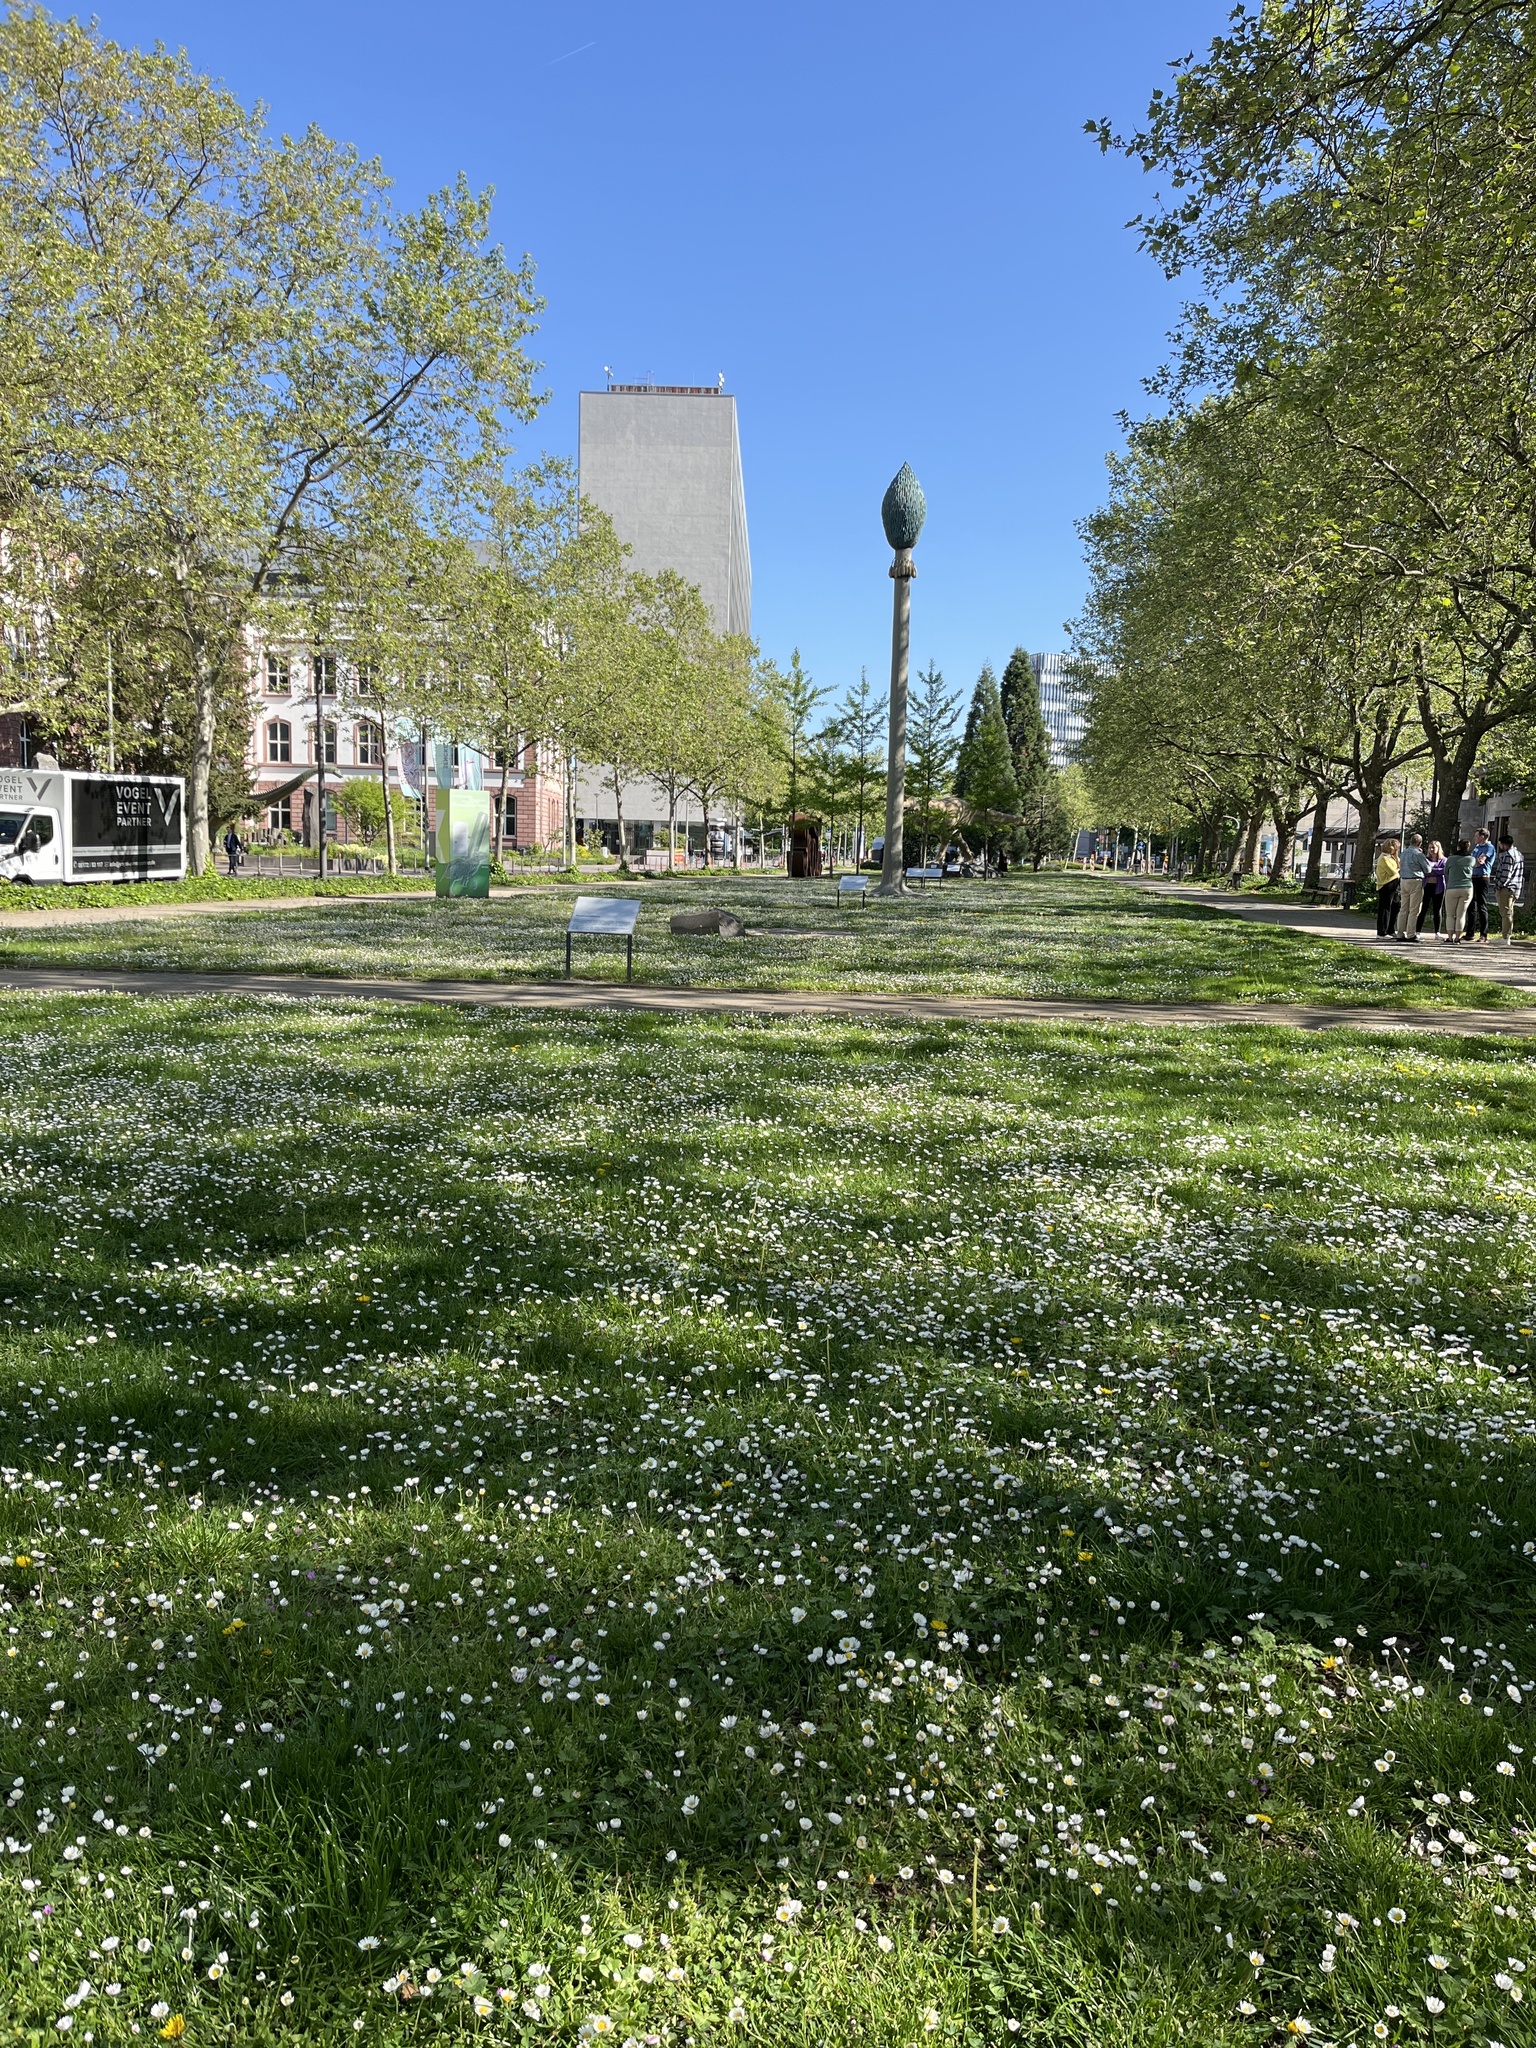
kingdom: Plantae
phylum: Tracheophyta
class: Magnoliopsida
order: Asterales
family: Asteraceae
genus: Bellis
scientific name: Bellis perennis
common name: Lawndaisy
